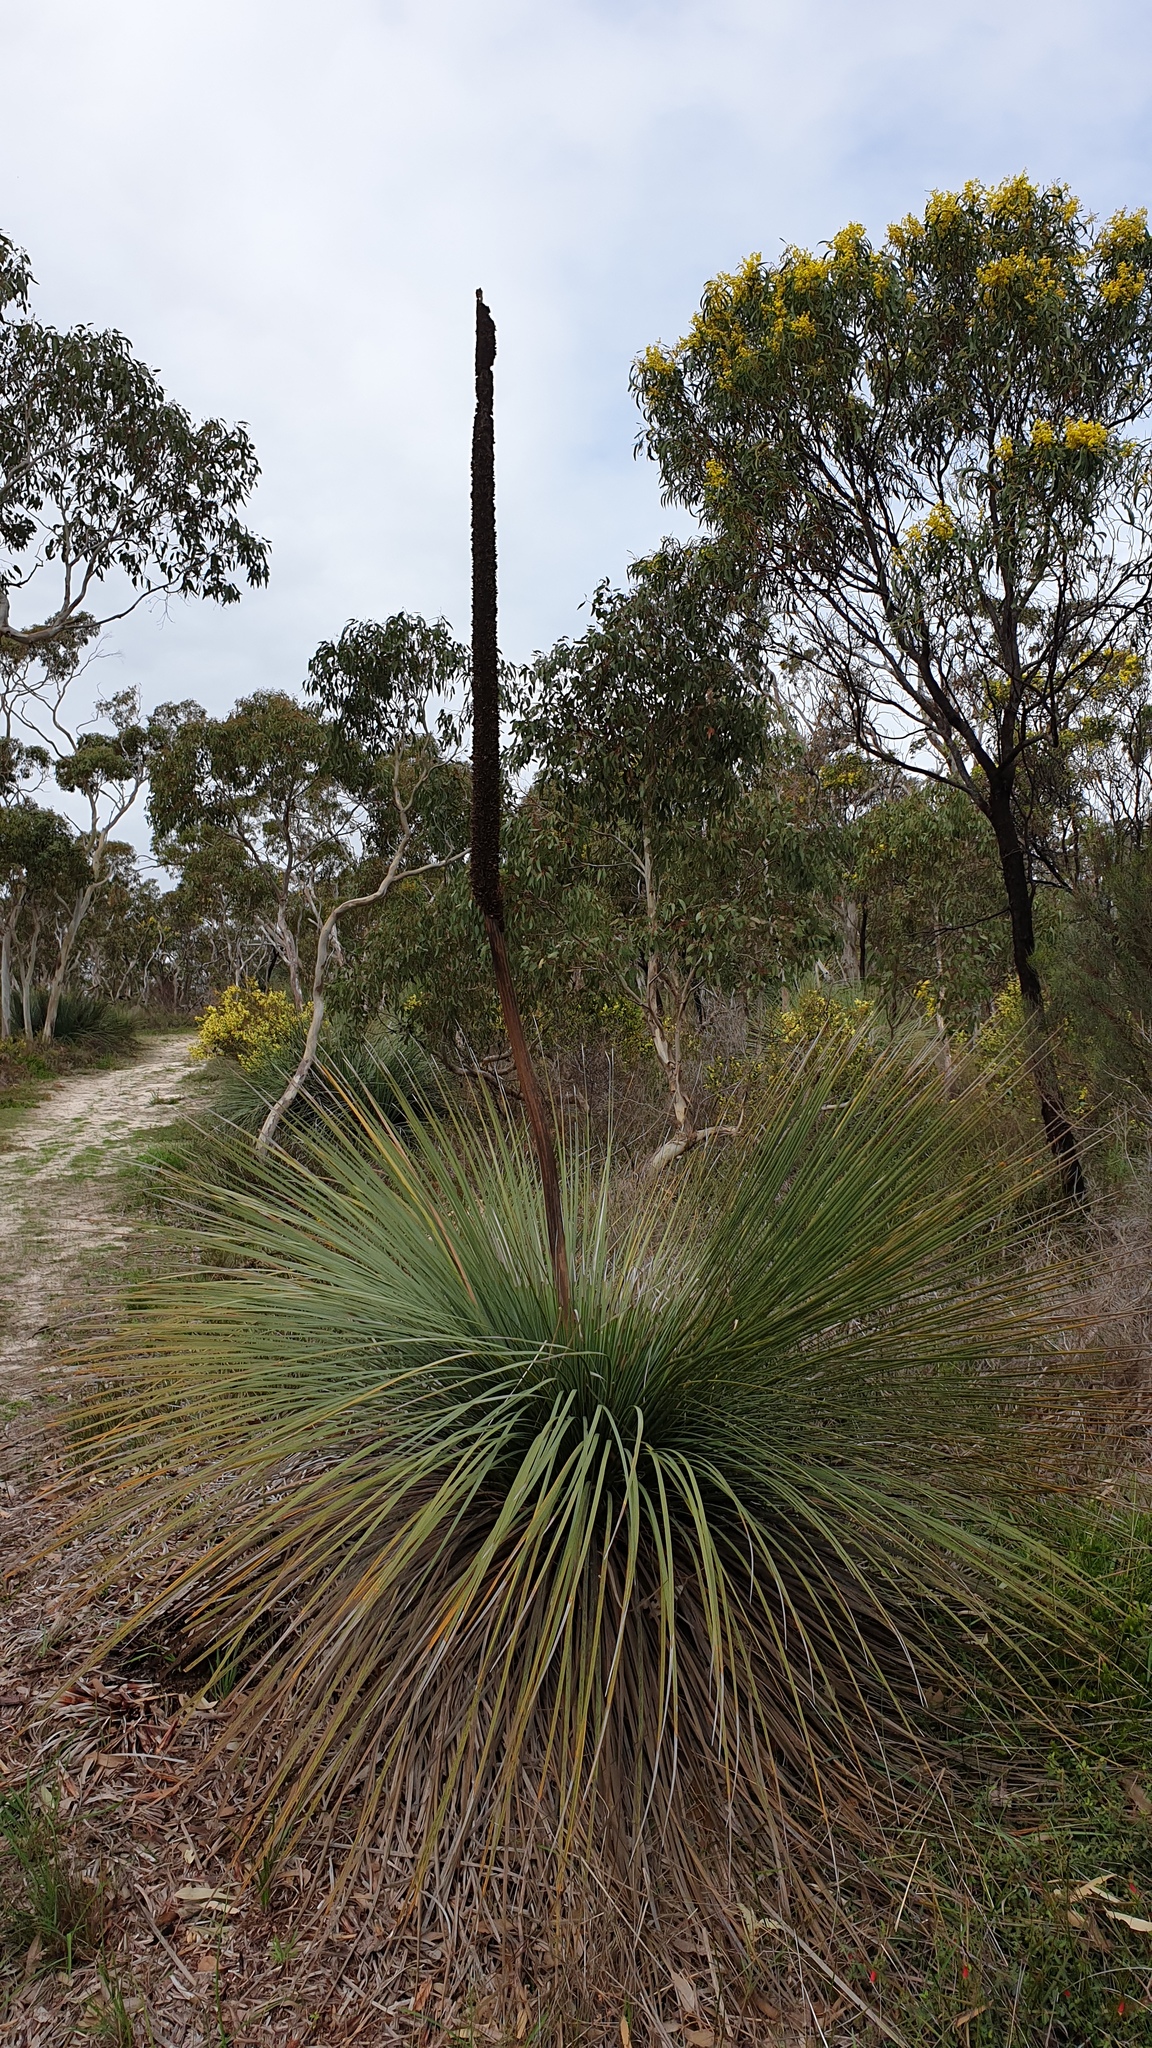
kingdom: Plantae
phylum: Tracheophyta
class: Liliopsida
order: Asparagales
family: Asphodelaceae
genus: Xanthorrhoea
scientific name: Xanthorrhoea semiplana
